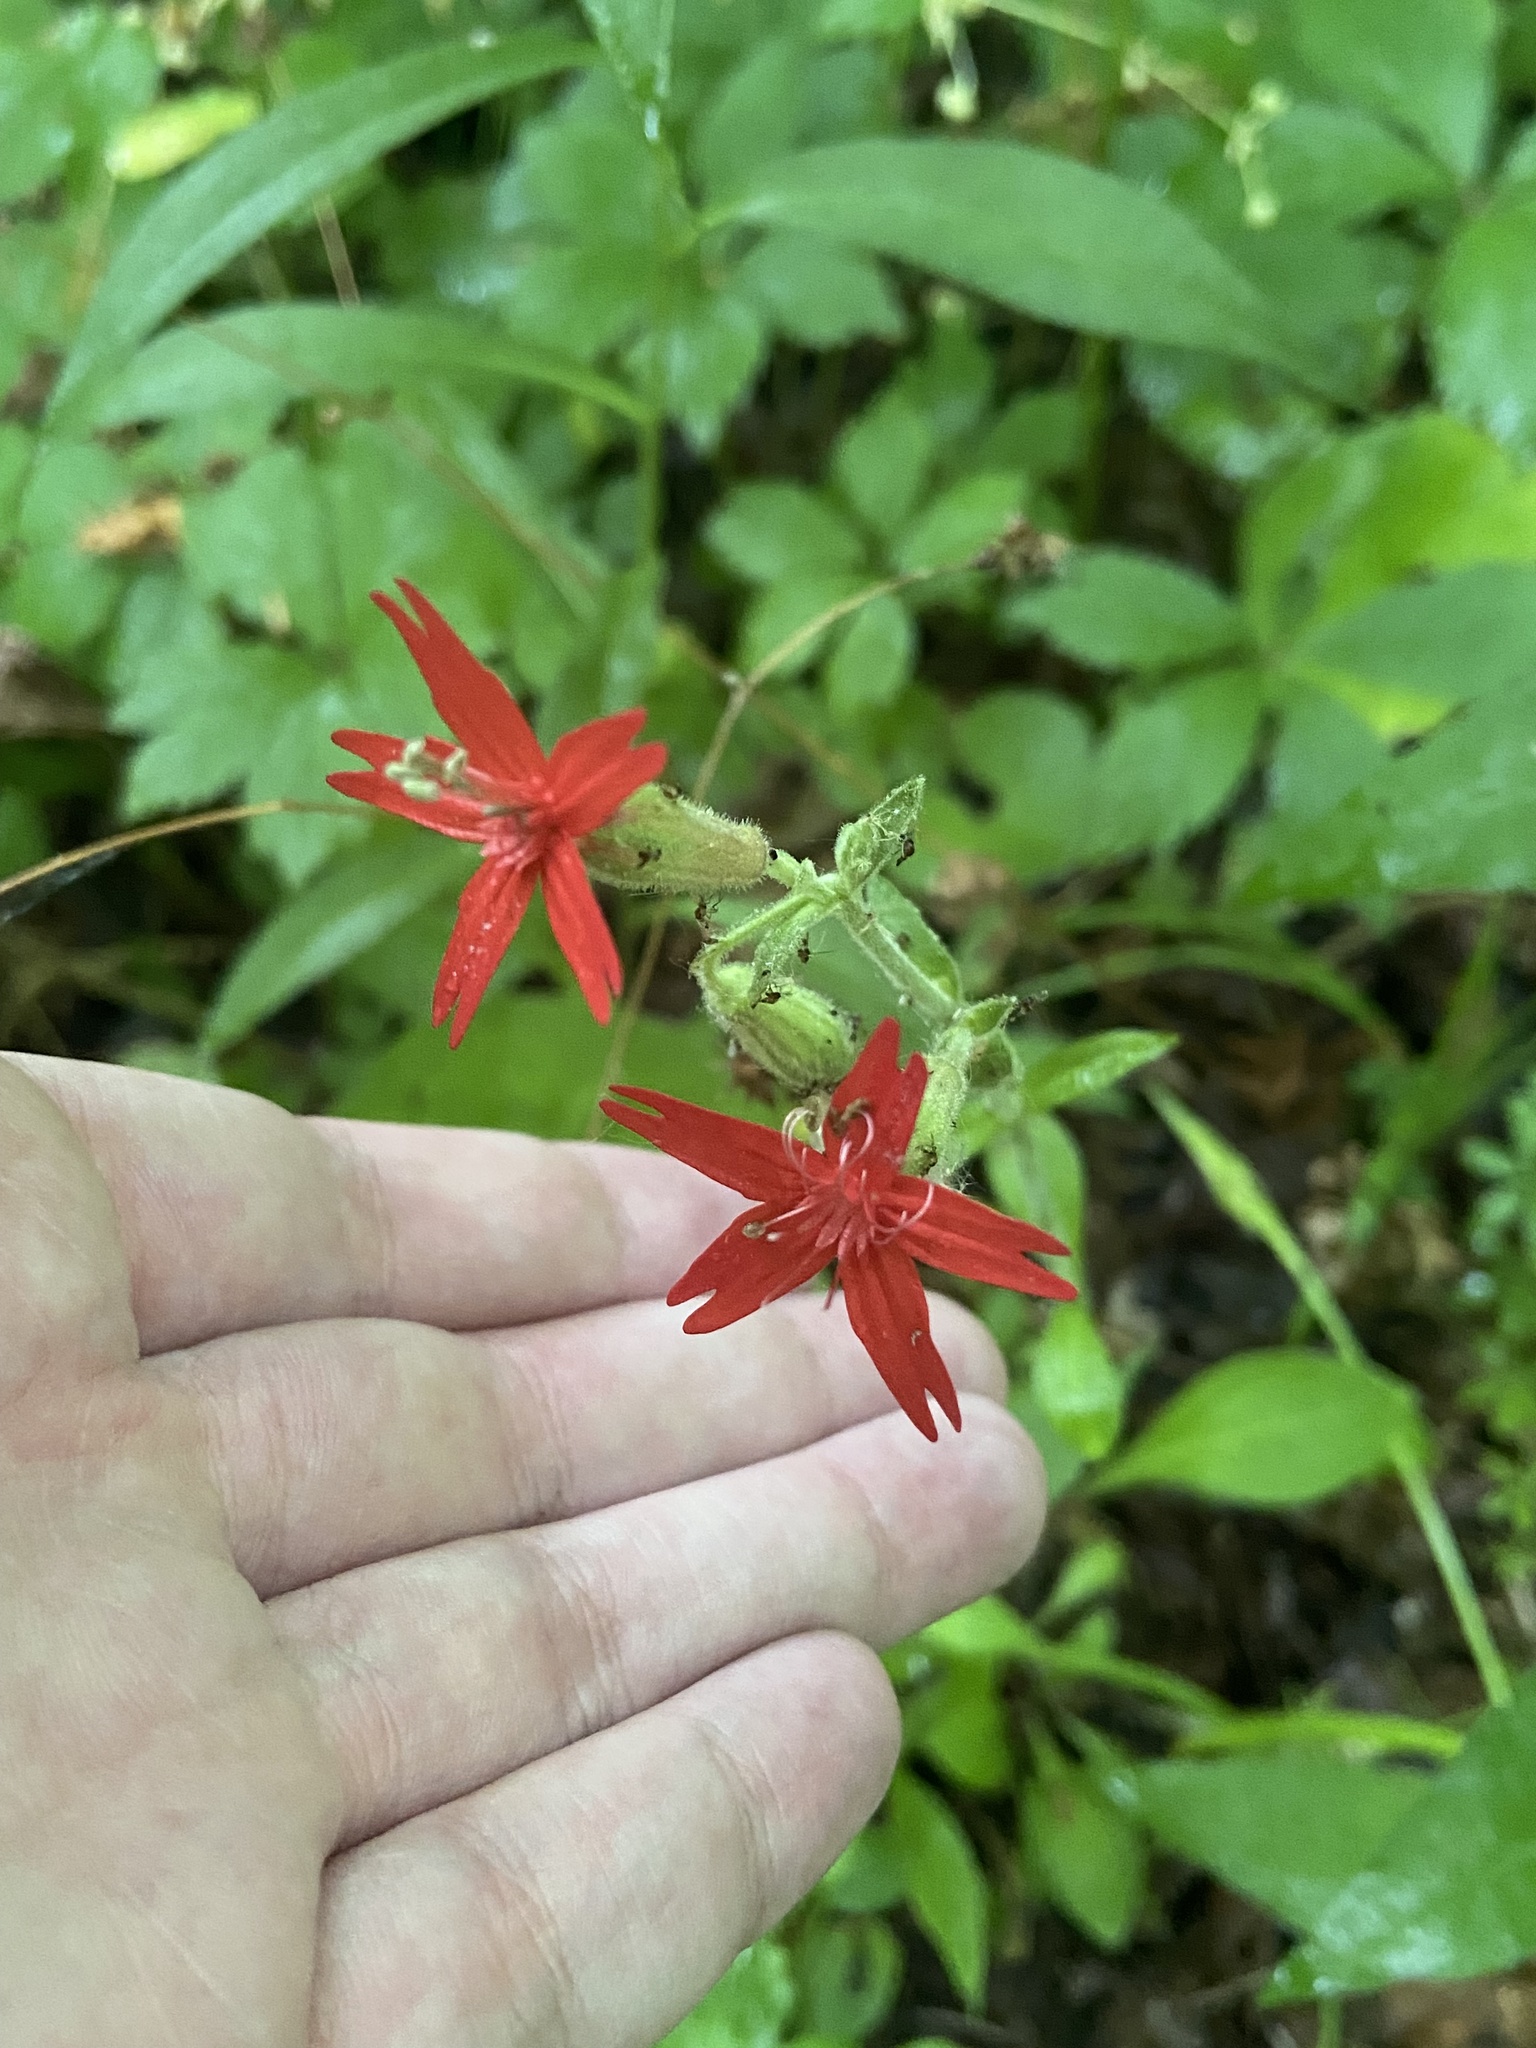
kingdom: Plantae
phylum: Tracheophyta
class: Magnoliopsida
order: Caryophyllales
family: Caryophyllaceae
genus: Silene
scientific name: Silene virginica
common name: Fire-pink
